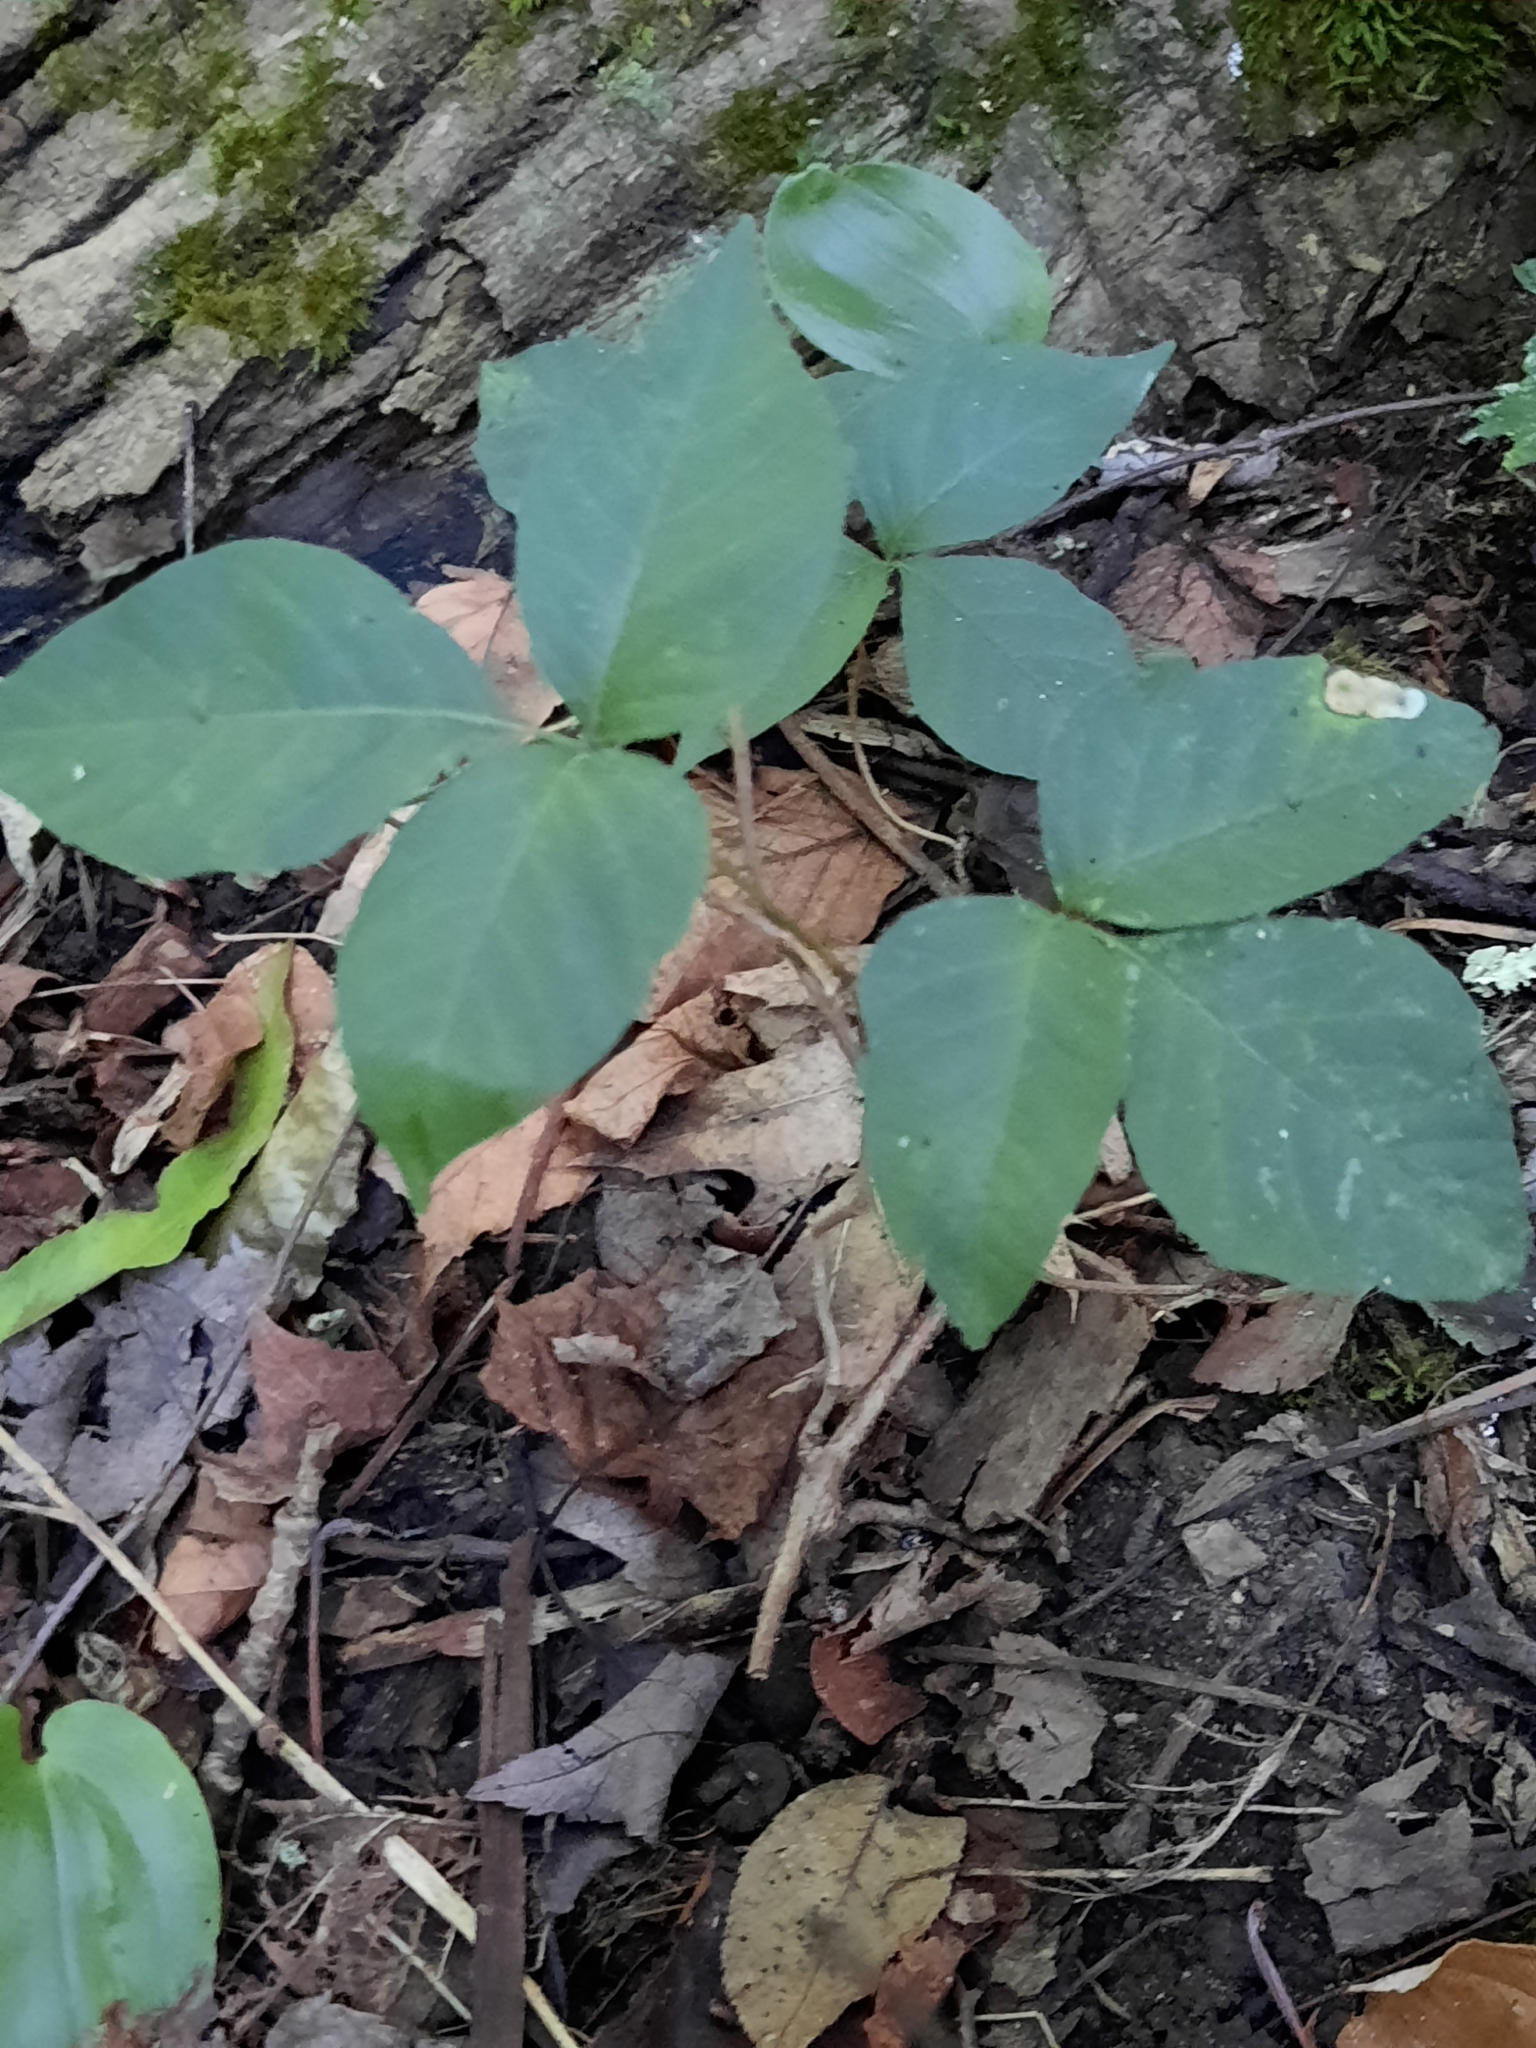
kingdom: Plantae
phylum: Tracheophyta
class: Magnoliopsida
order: Sapindales
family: Anacardiaceae
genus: Toxicodendron
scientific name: Toxicodendron radicans
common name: Poison ivy
